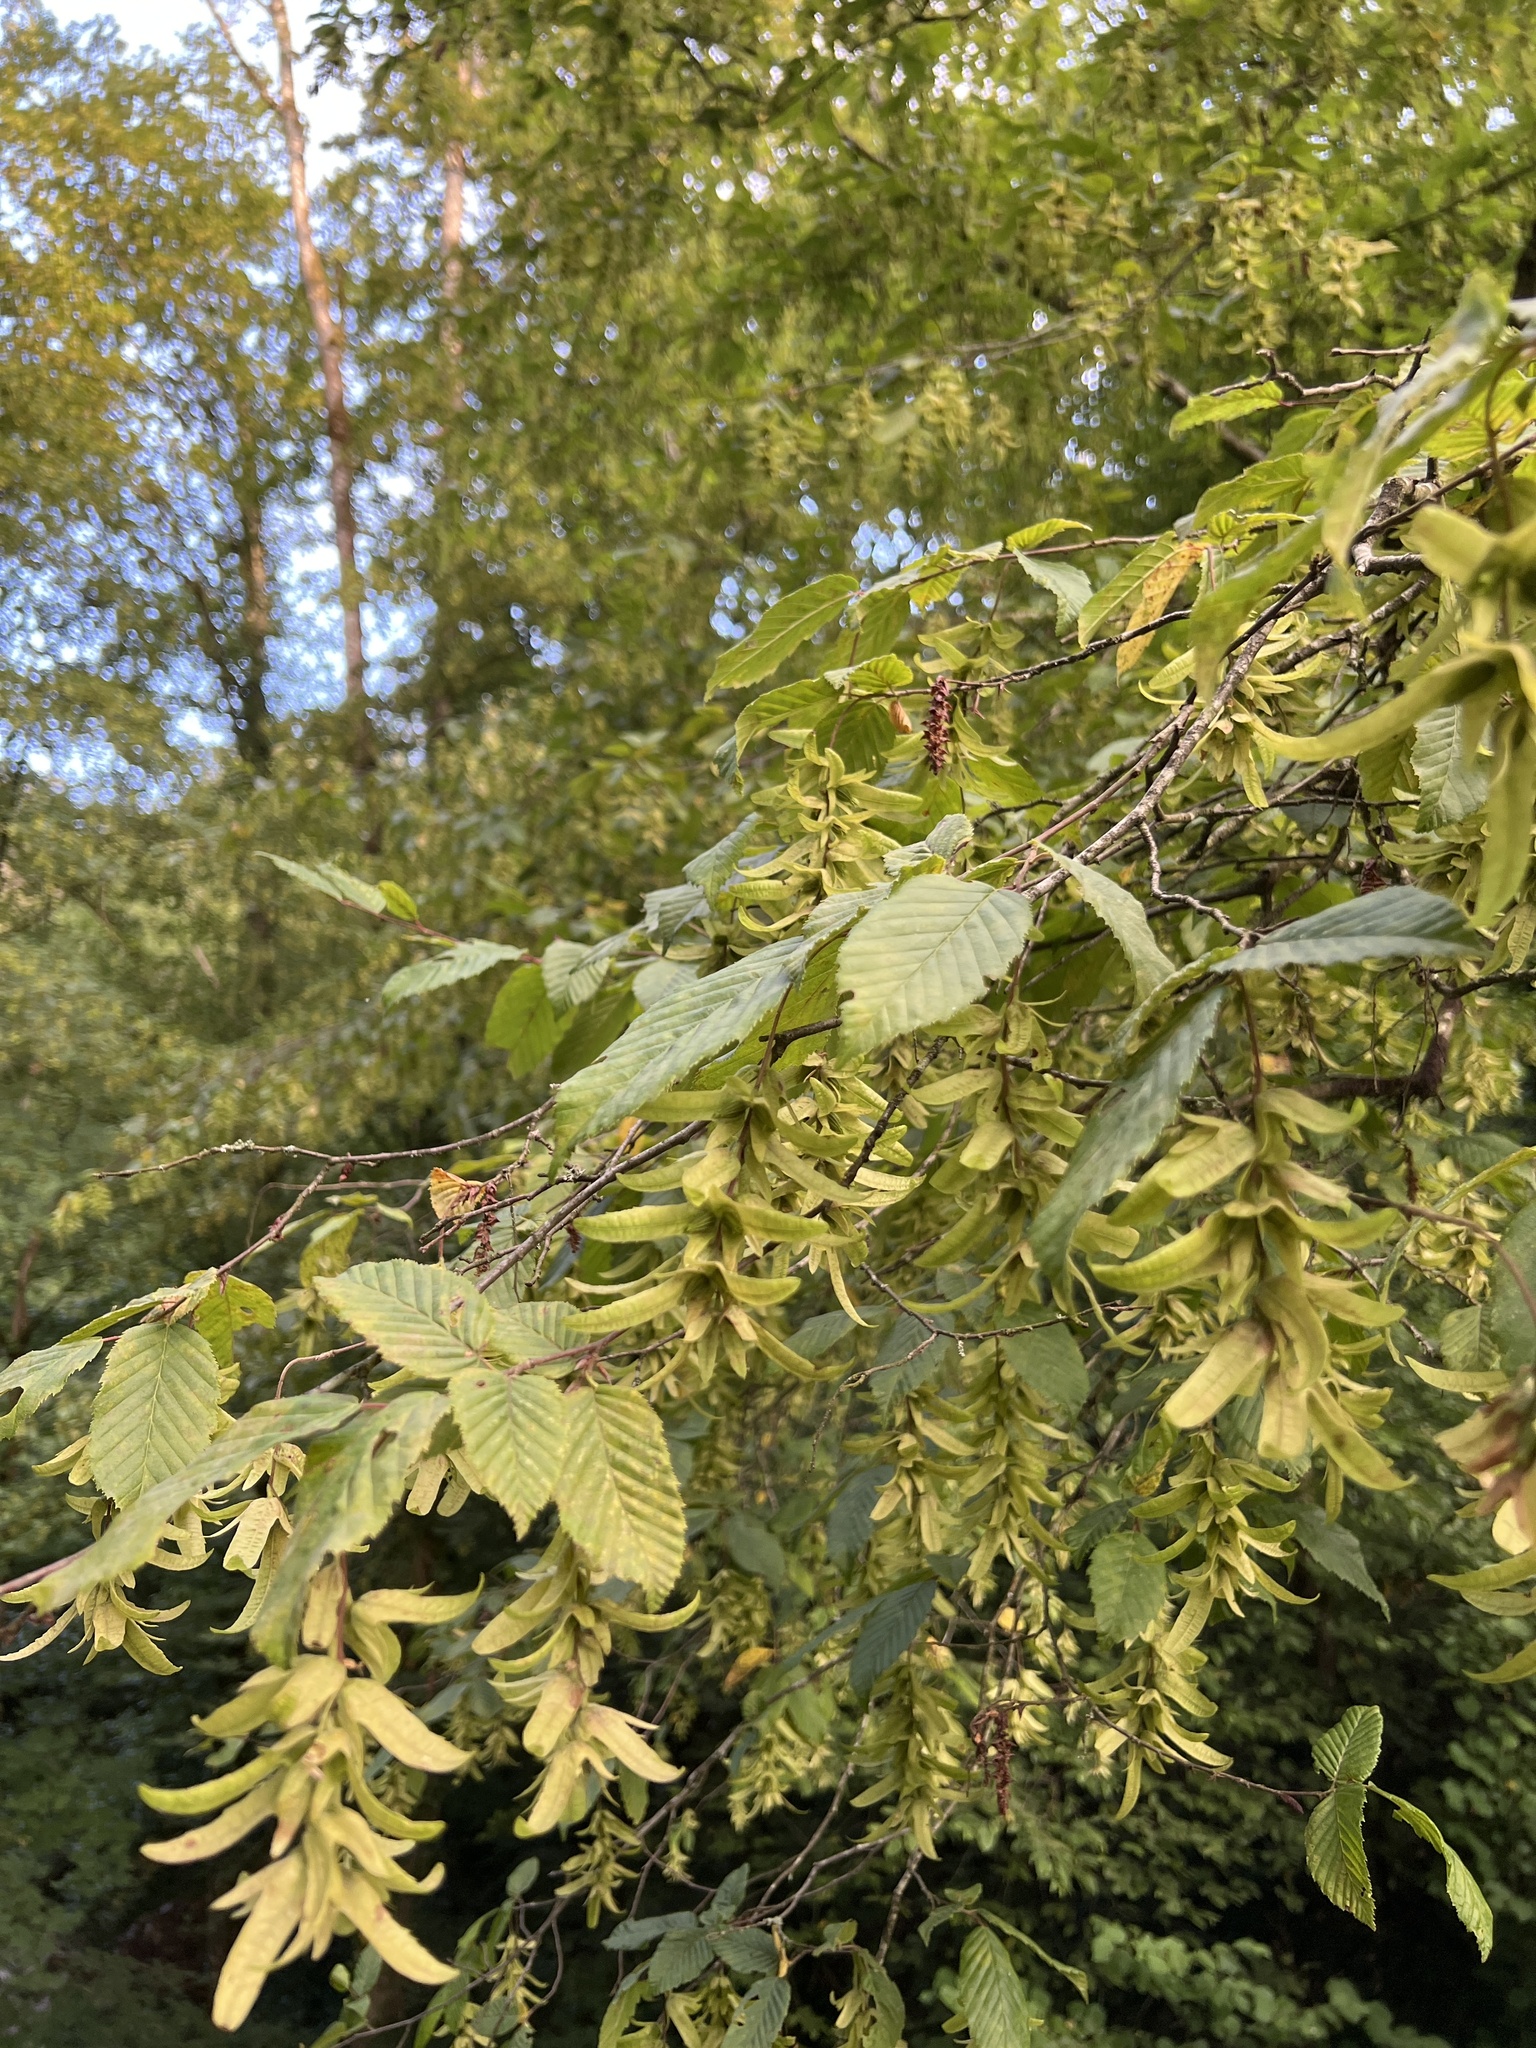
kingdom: Plantae
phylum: Tracheophyta
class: Magnoliopsida
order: Fagales
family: Betulaceae
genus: Carpinus
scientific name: Carpinus betulus
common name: Hornbeam
